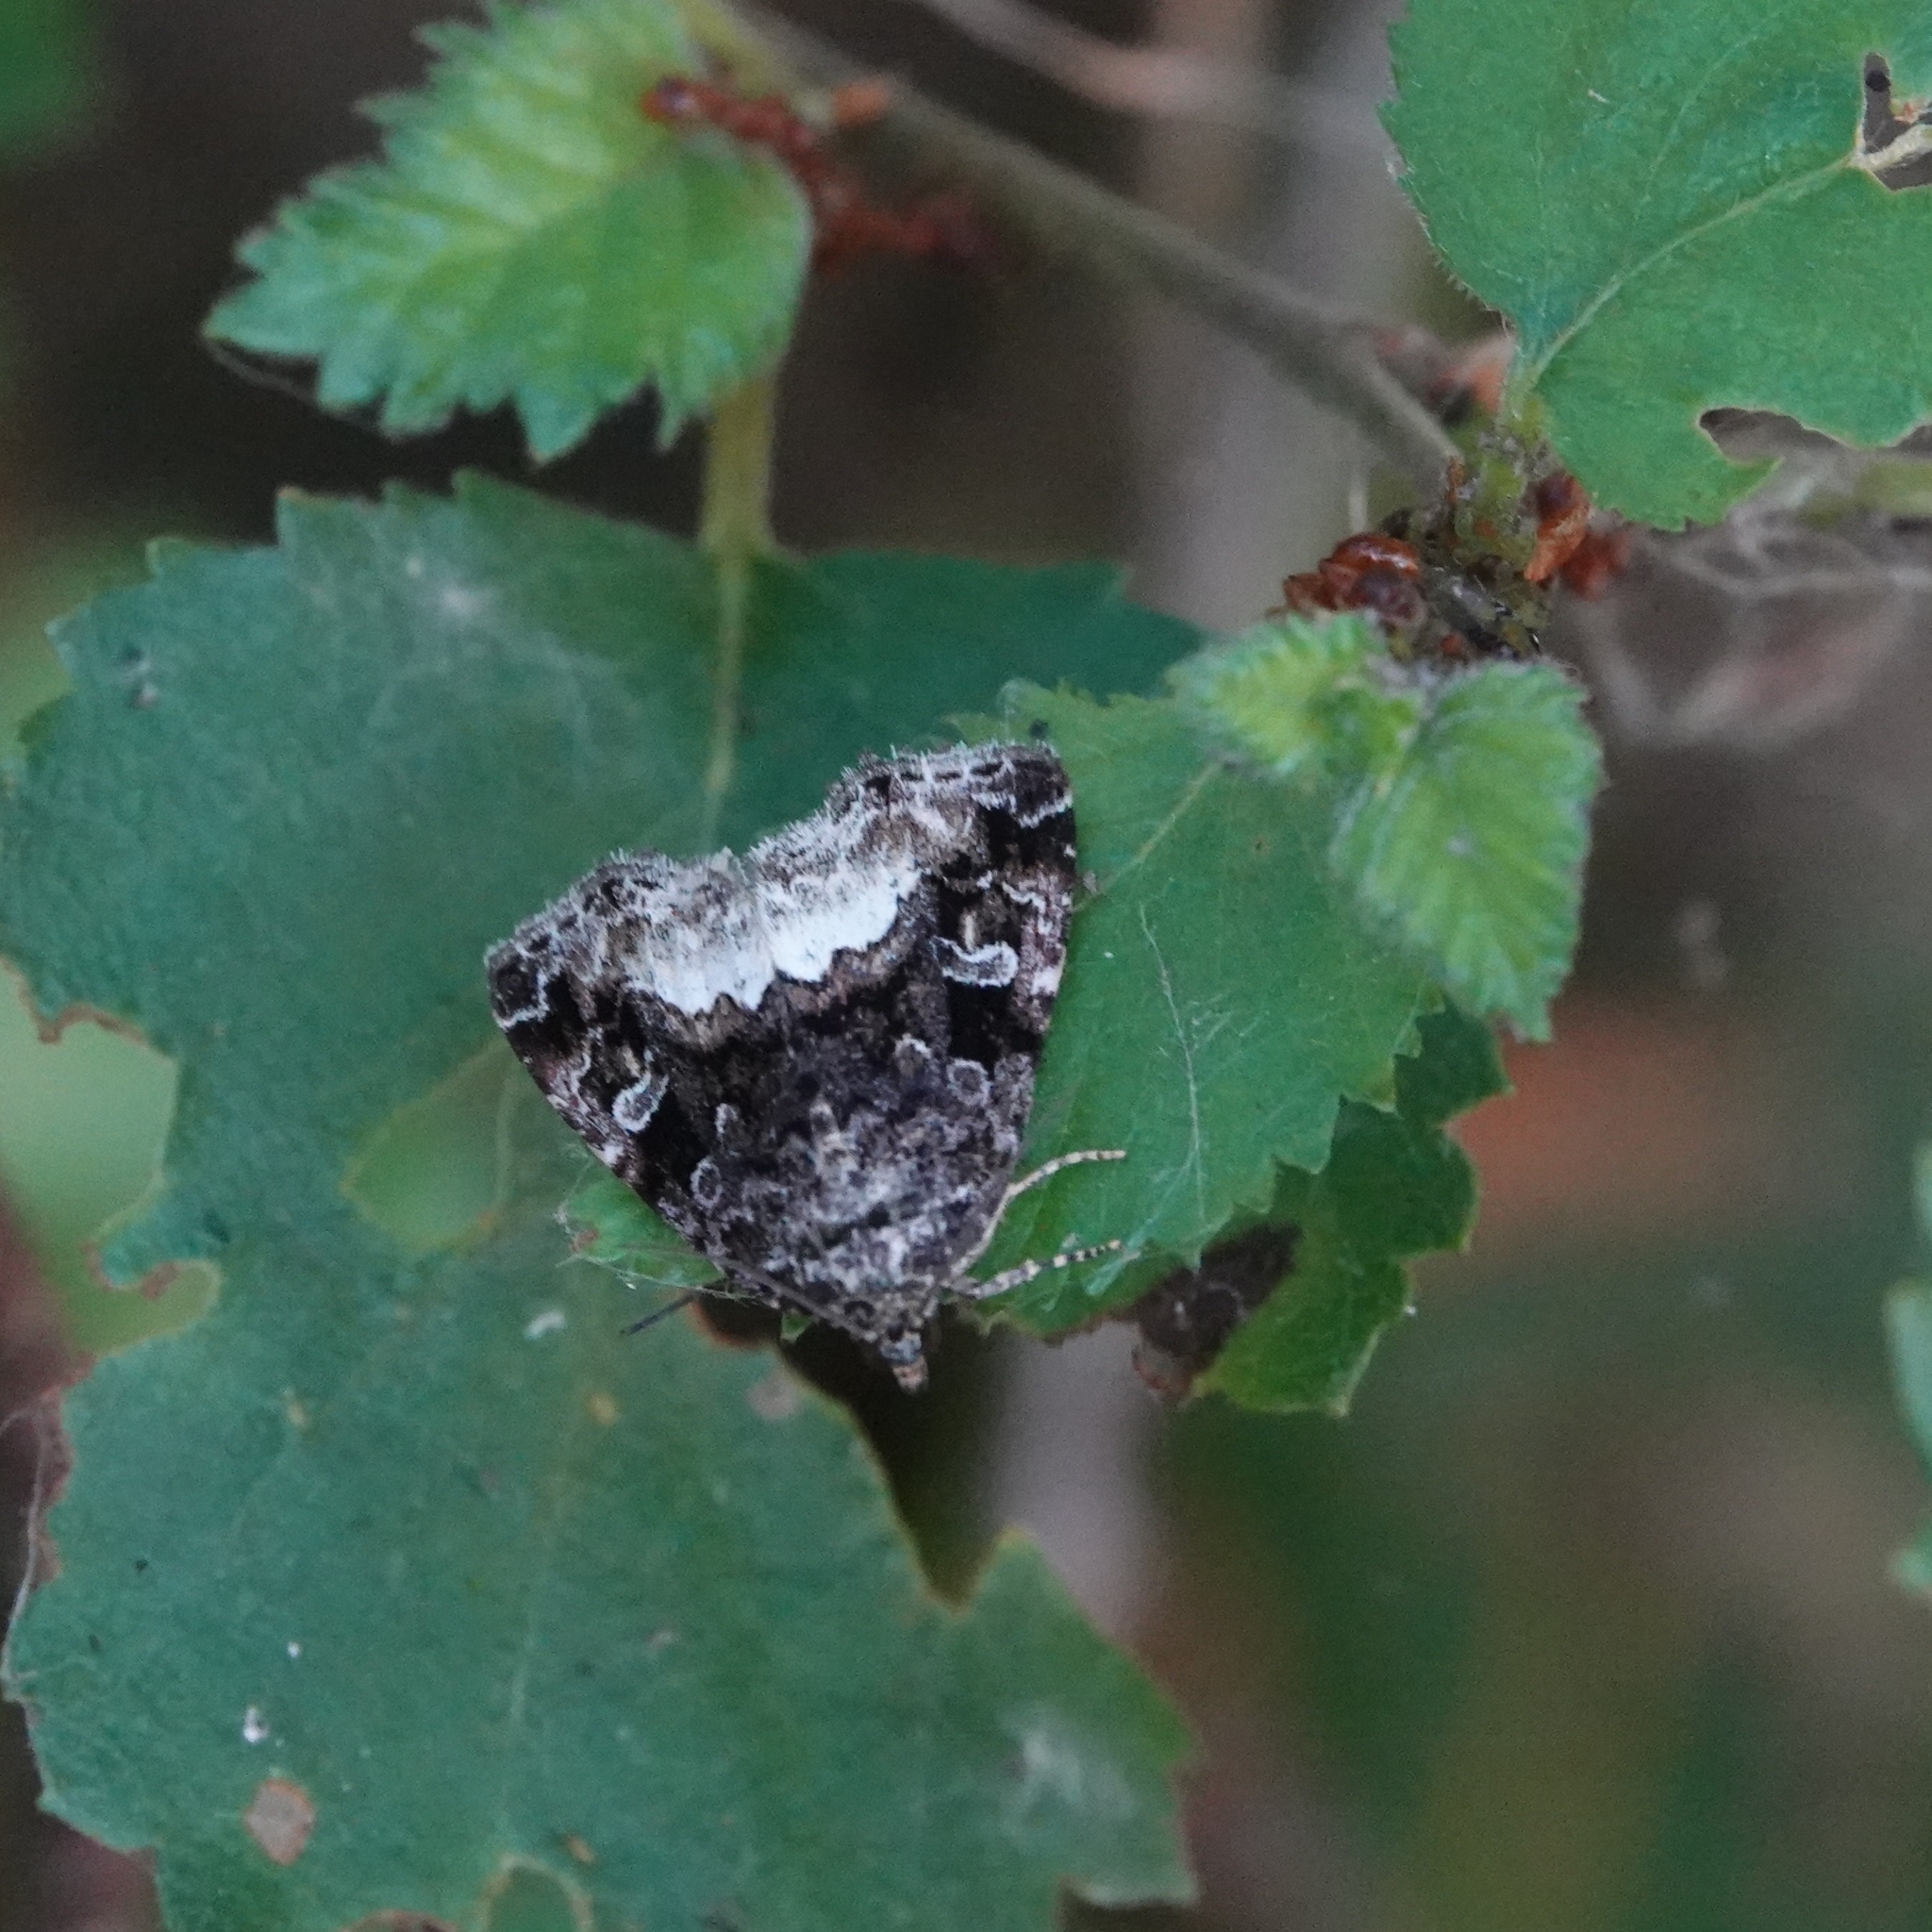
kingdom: Animalia
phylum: Arthropoda
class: Insecta
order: Lepidoptera
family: Noctuidae
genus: Deltote
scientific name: Deltote pygarga
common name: Marbled white spot
